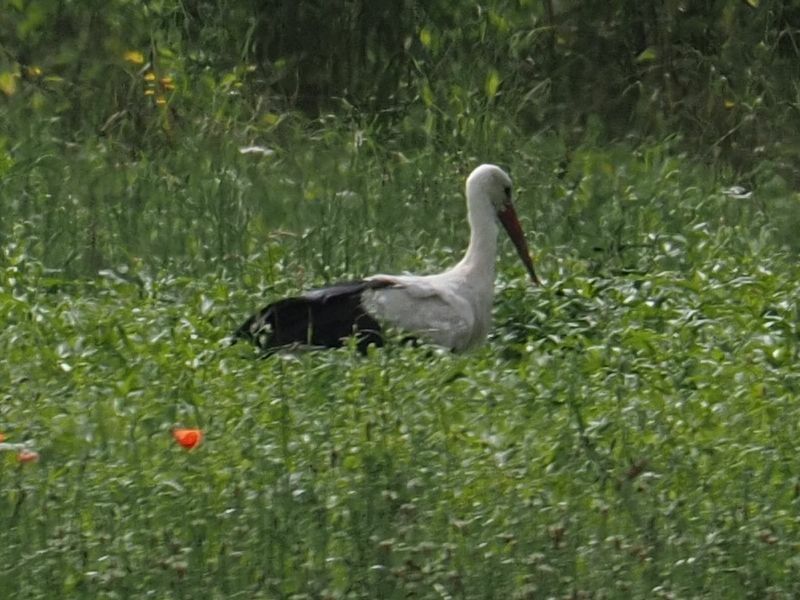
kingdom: Animalia
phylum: Chordata
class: Aves
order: Ciconiiformes
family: Ciconiidae
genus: Ciconia
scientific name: Ciconia ciconia
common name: White stork
